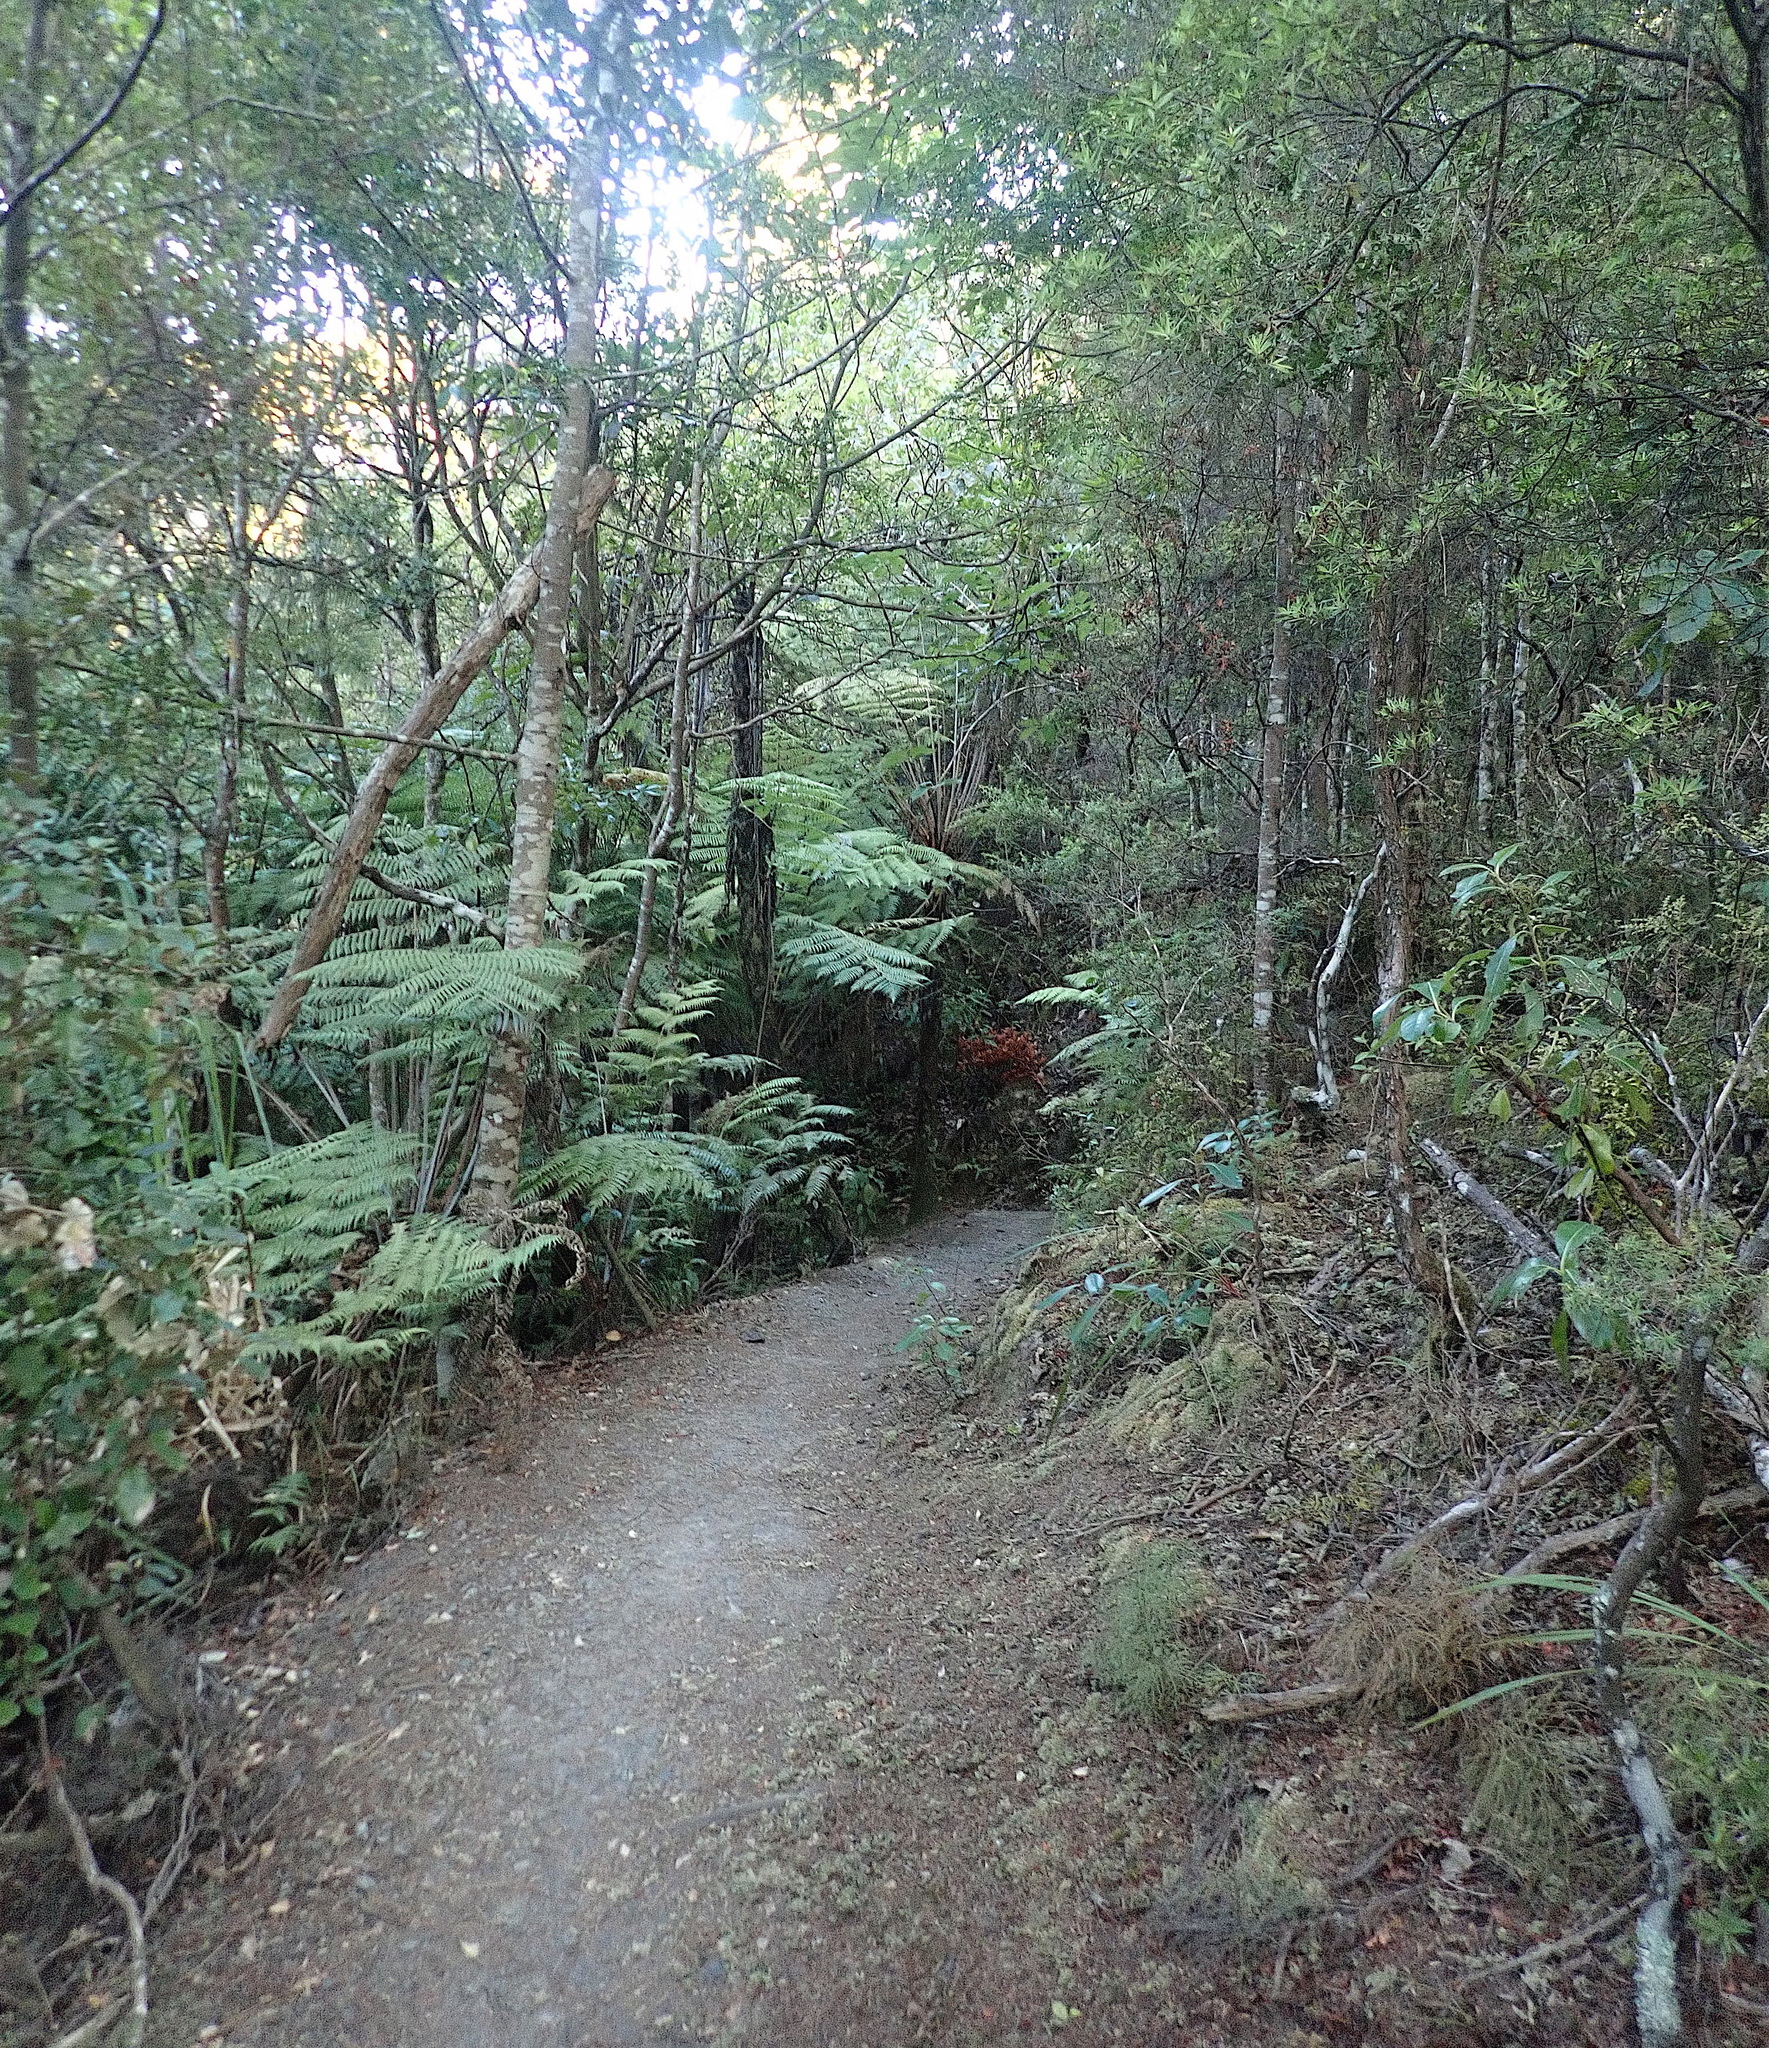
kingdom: Plantae
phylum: Tracheophyta
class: Polypodiopsida
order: Cyatheales
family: Cyatheaceae
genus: Alsophila
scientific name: Alsophila dealbata
